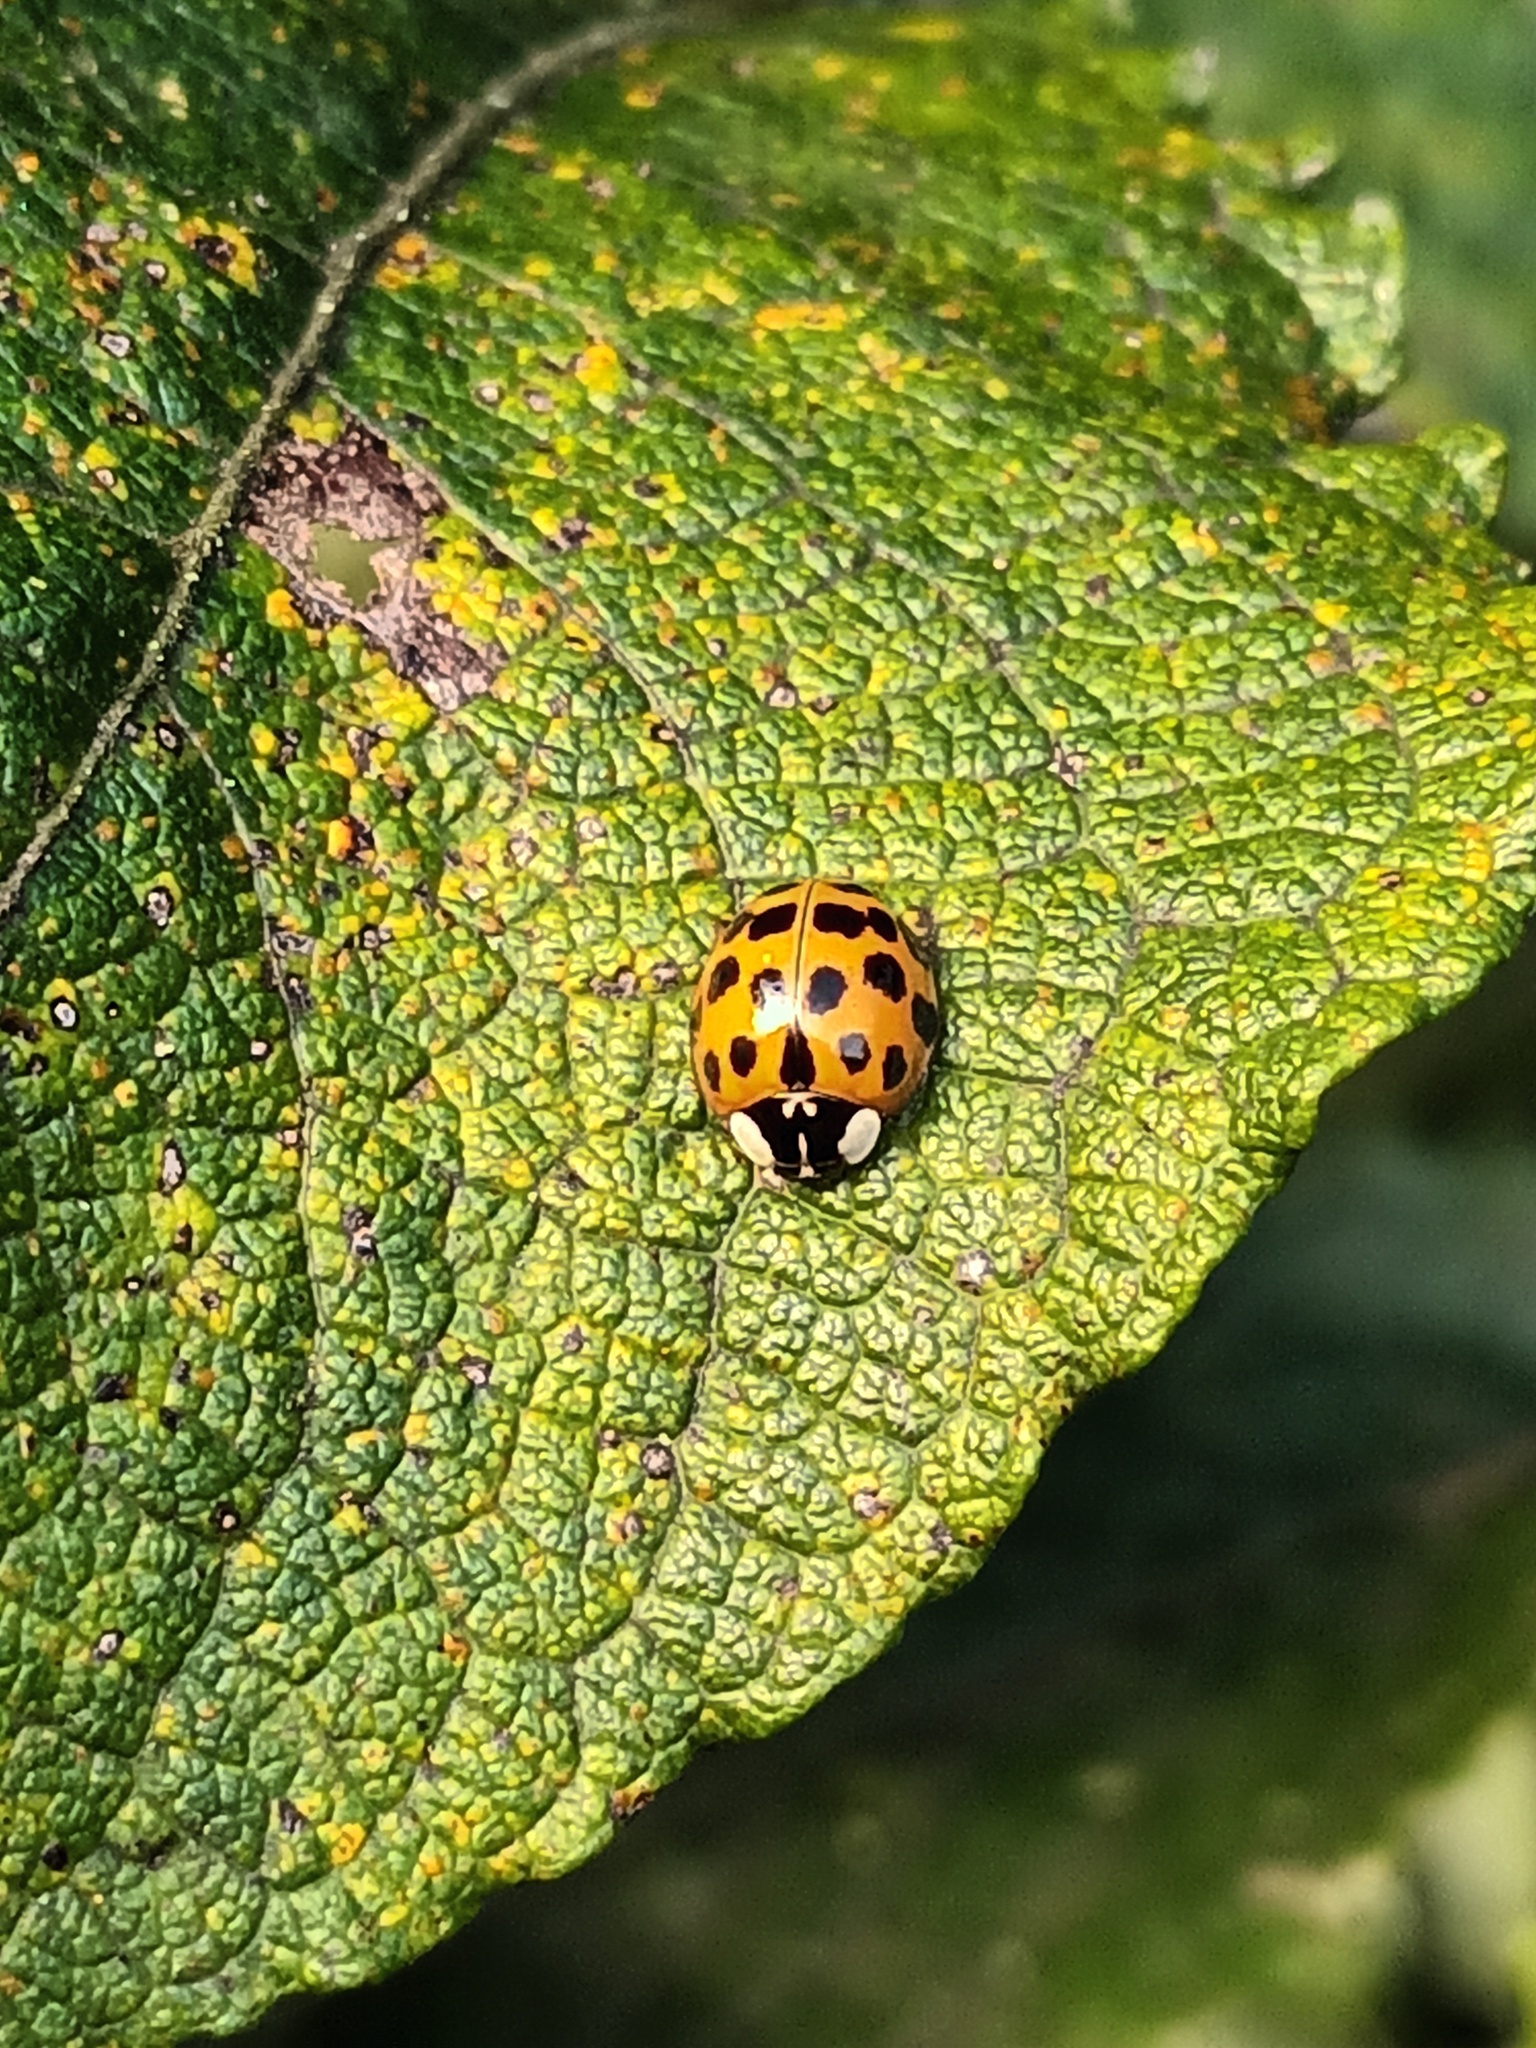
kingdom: Animalia
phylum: Arthropoda
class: Insecta
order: Coleoptera
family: Coccinellidae
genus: Harmonia
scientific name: Harmonia axyridis
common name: Harlequin ladybird
